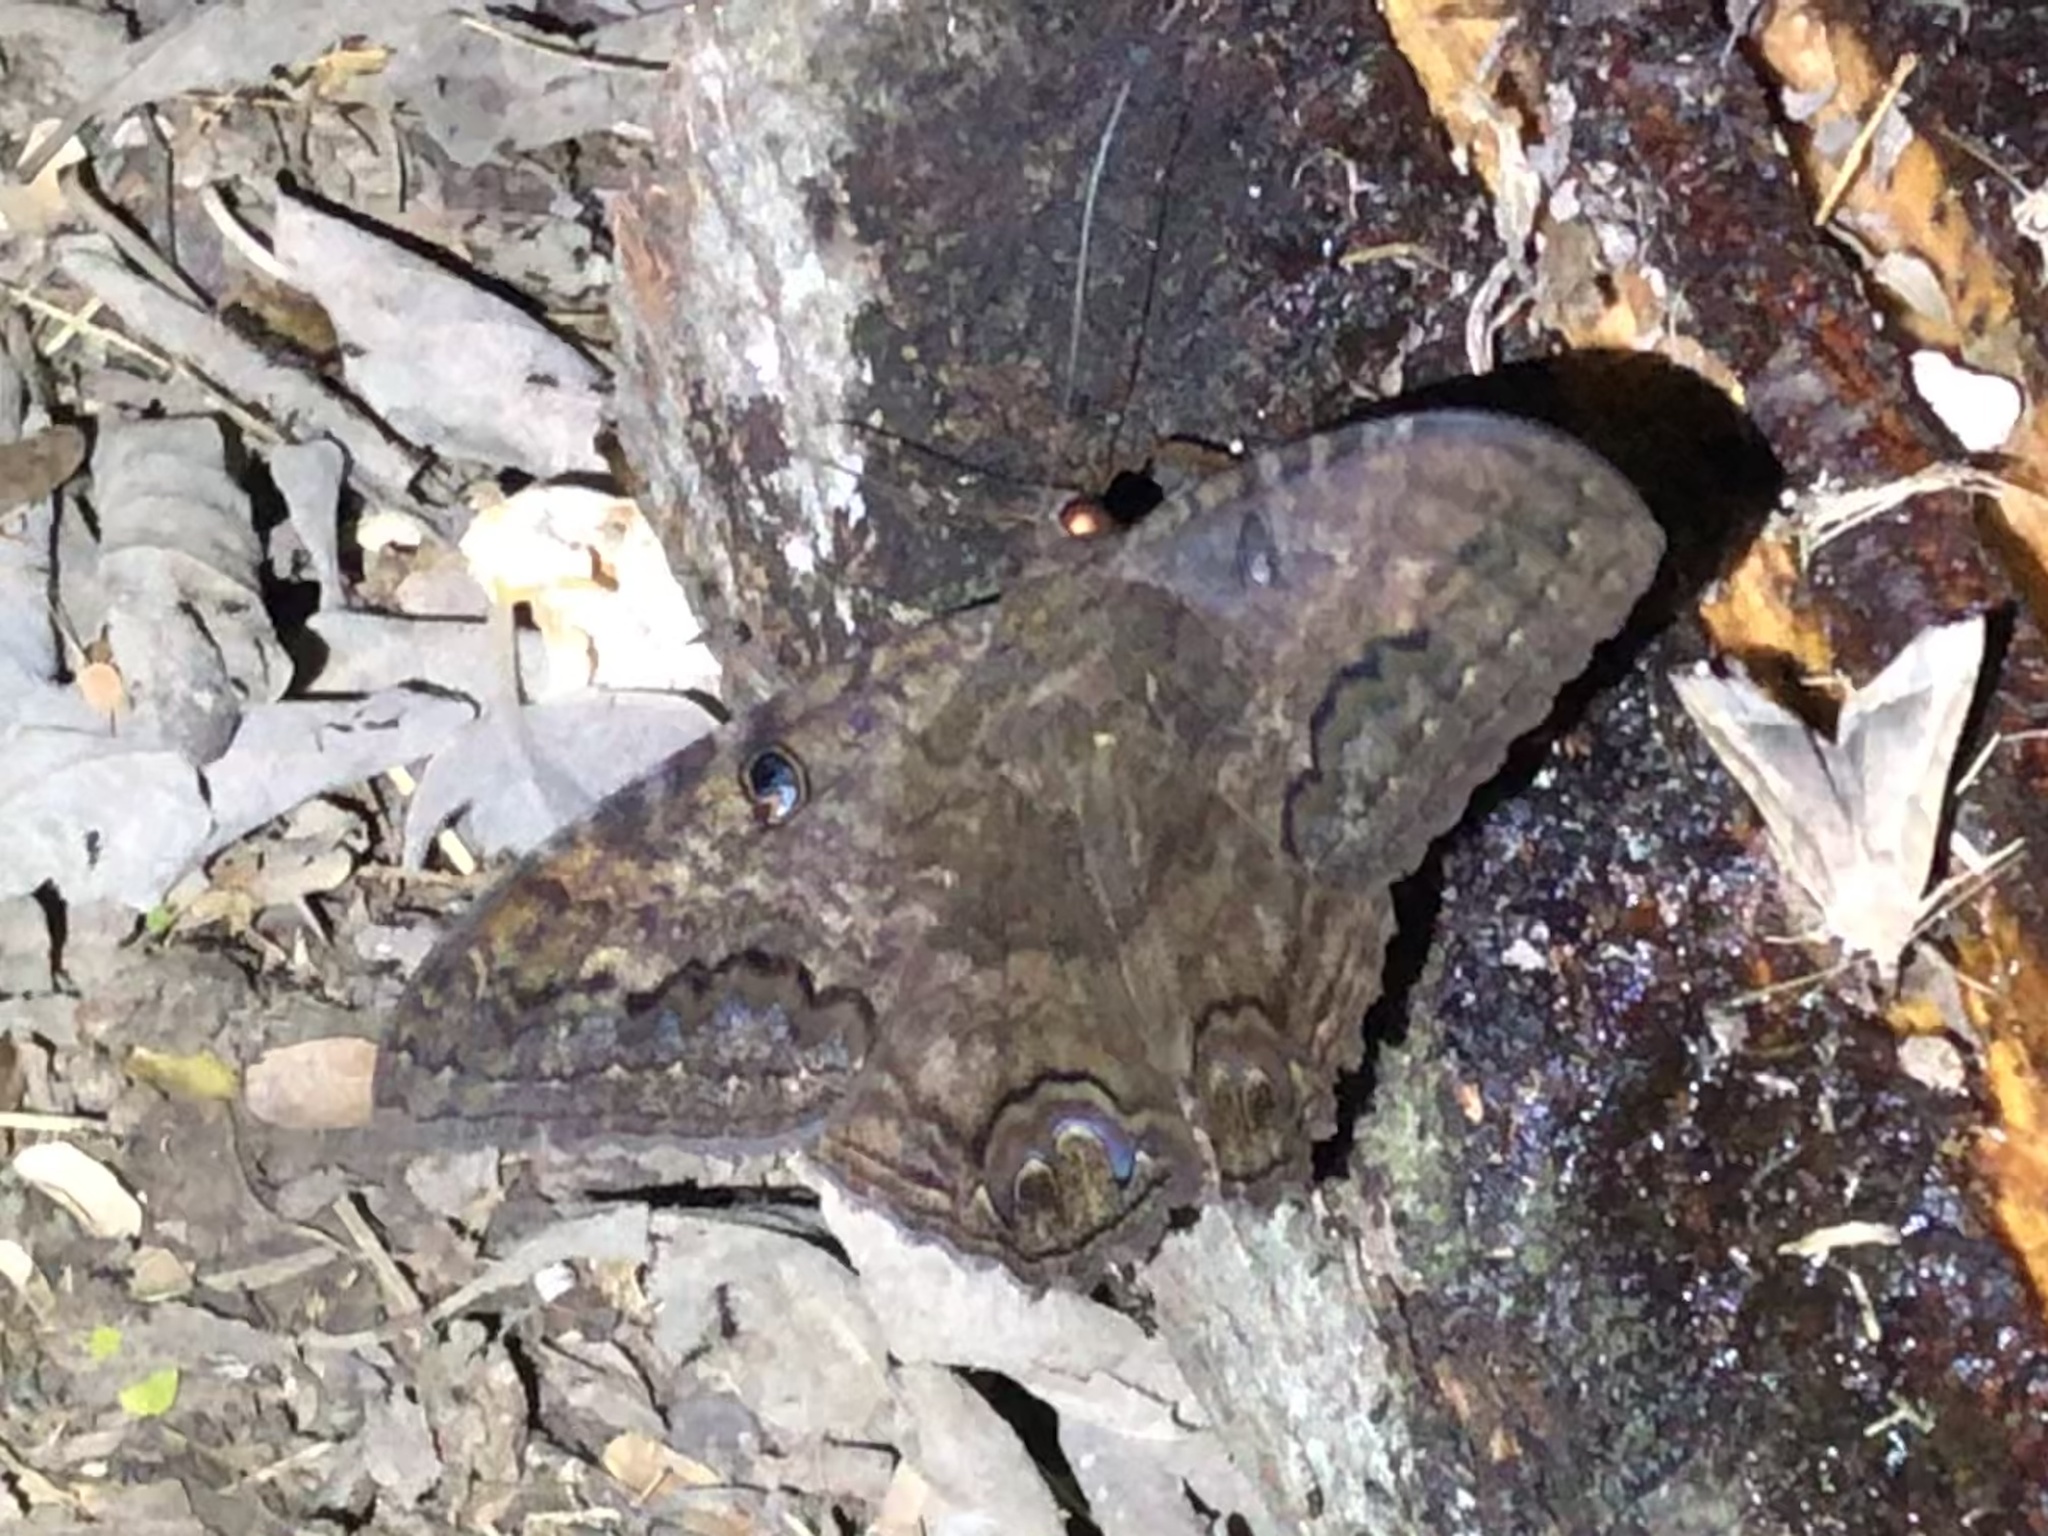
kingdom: Animalia
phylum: Arthropoda
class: Insecta
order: Lepidoptera
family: Erebidae
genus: Ascalapha
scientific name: Ascalapha odorata
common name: Black witch
